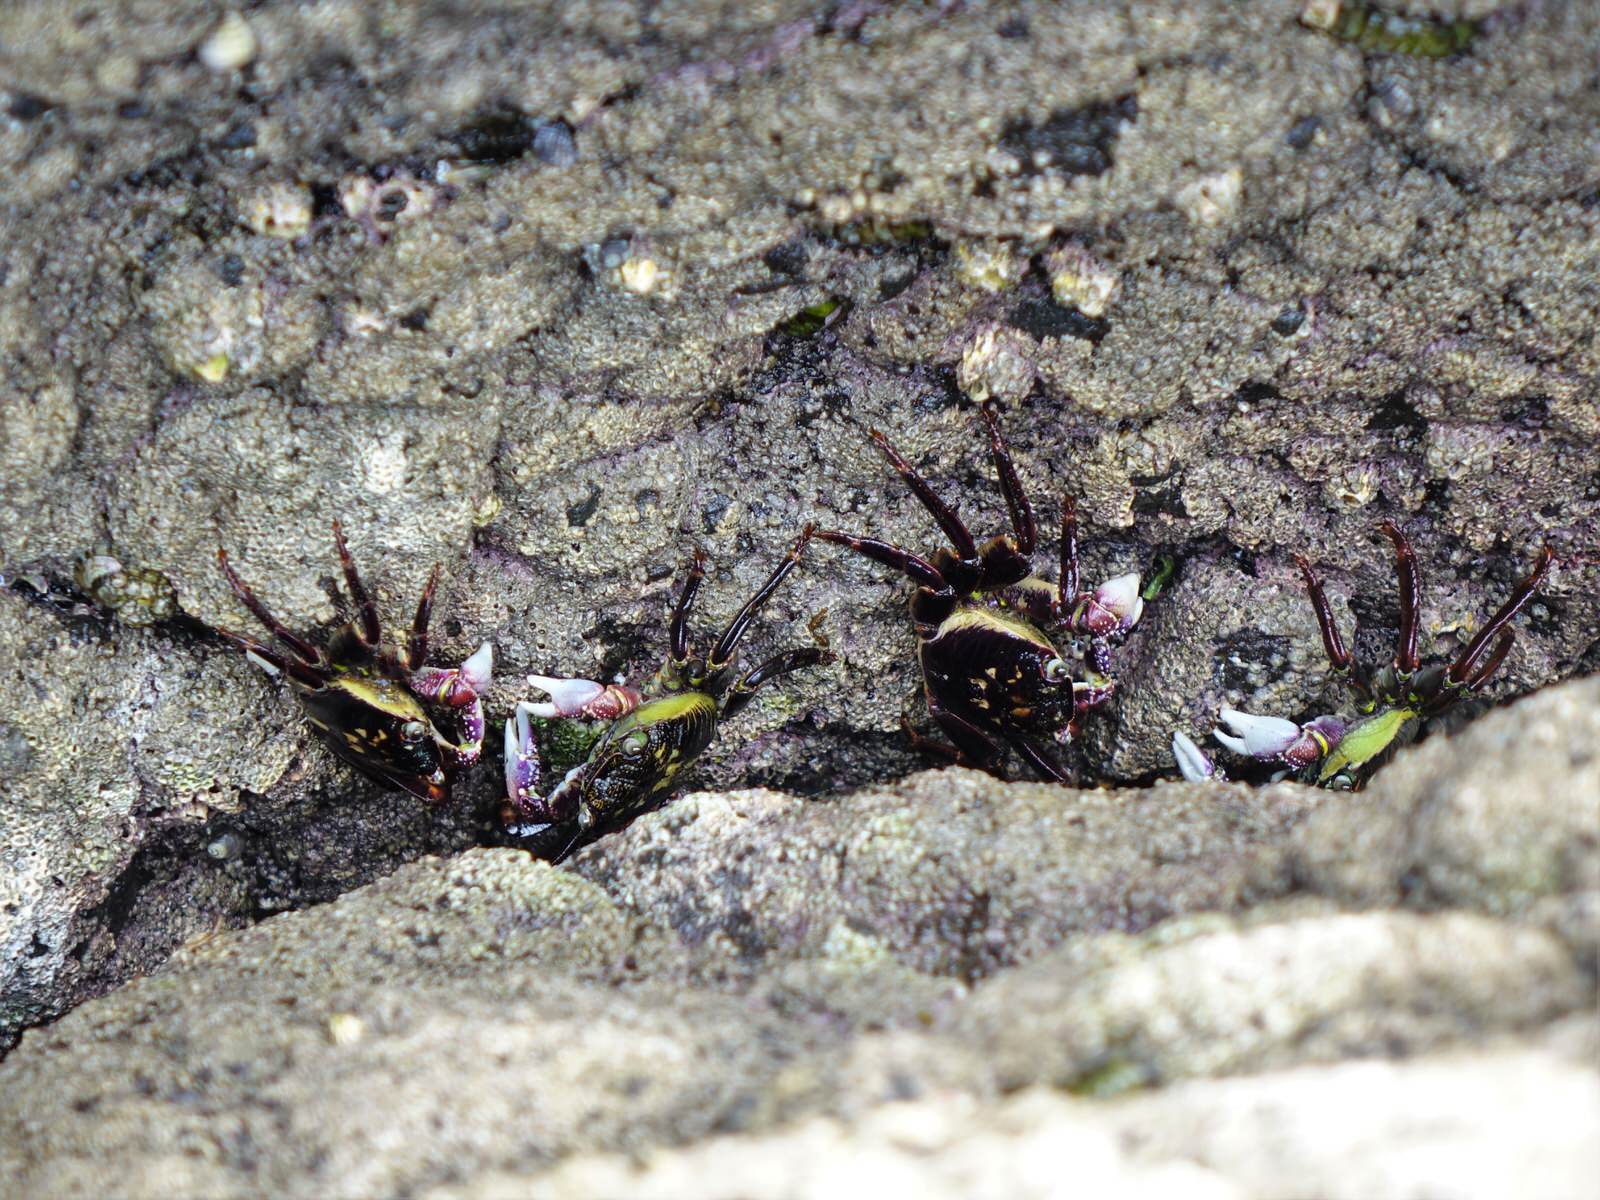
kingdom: Animalia
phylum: Arthropoda
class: Malacostraca
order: Decapoda
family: Grapsidae
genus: Leptograpsus
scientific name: Leptograpsus variegatus
